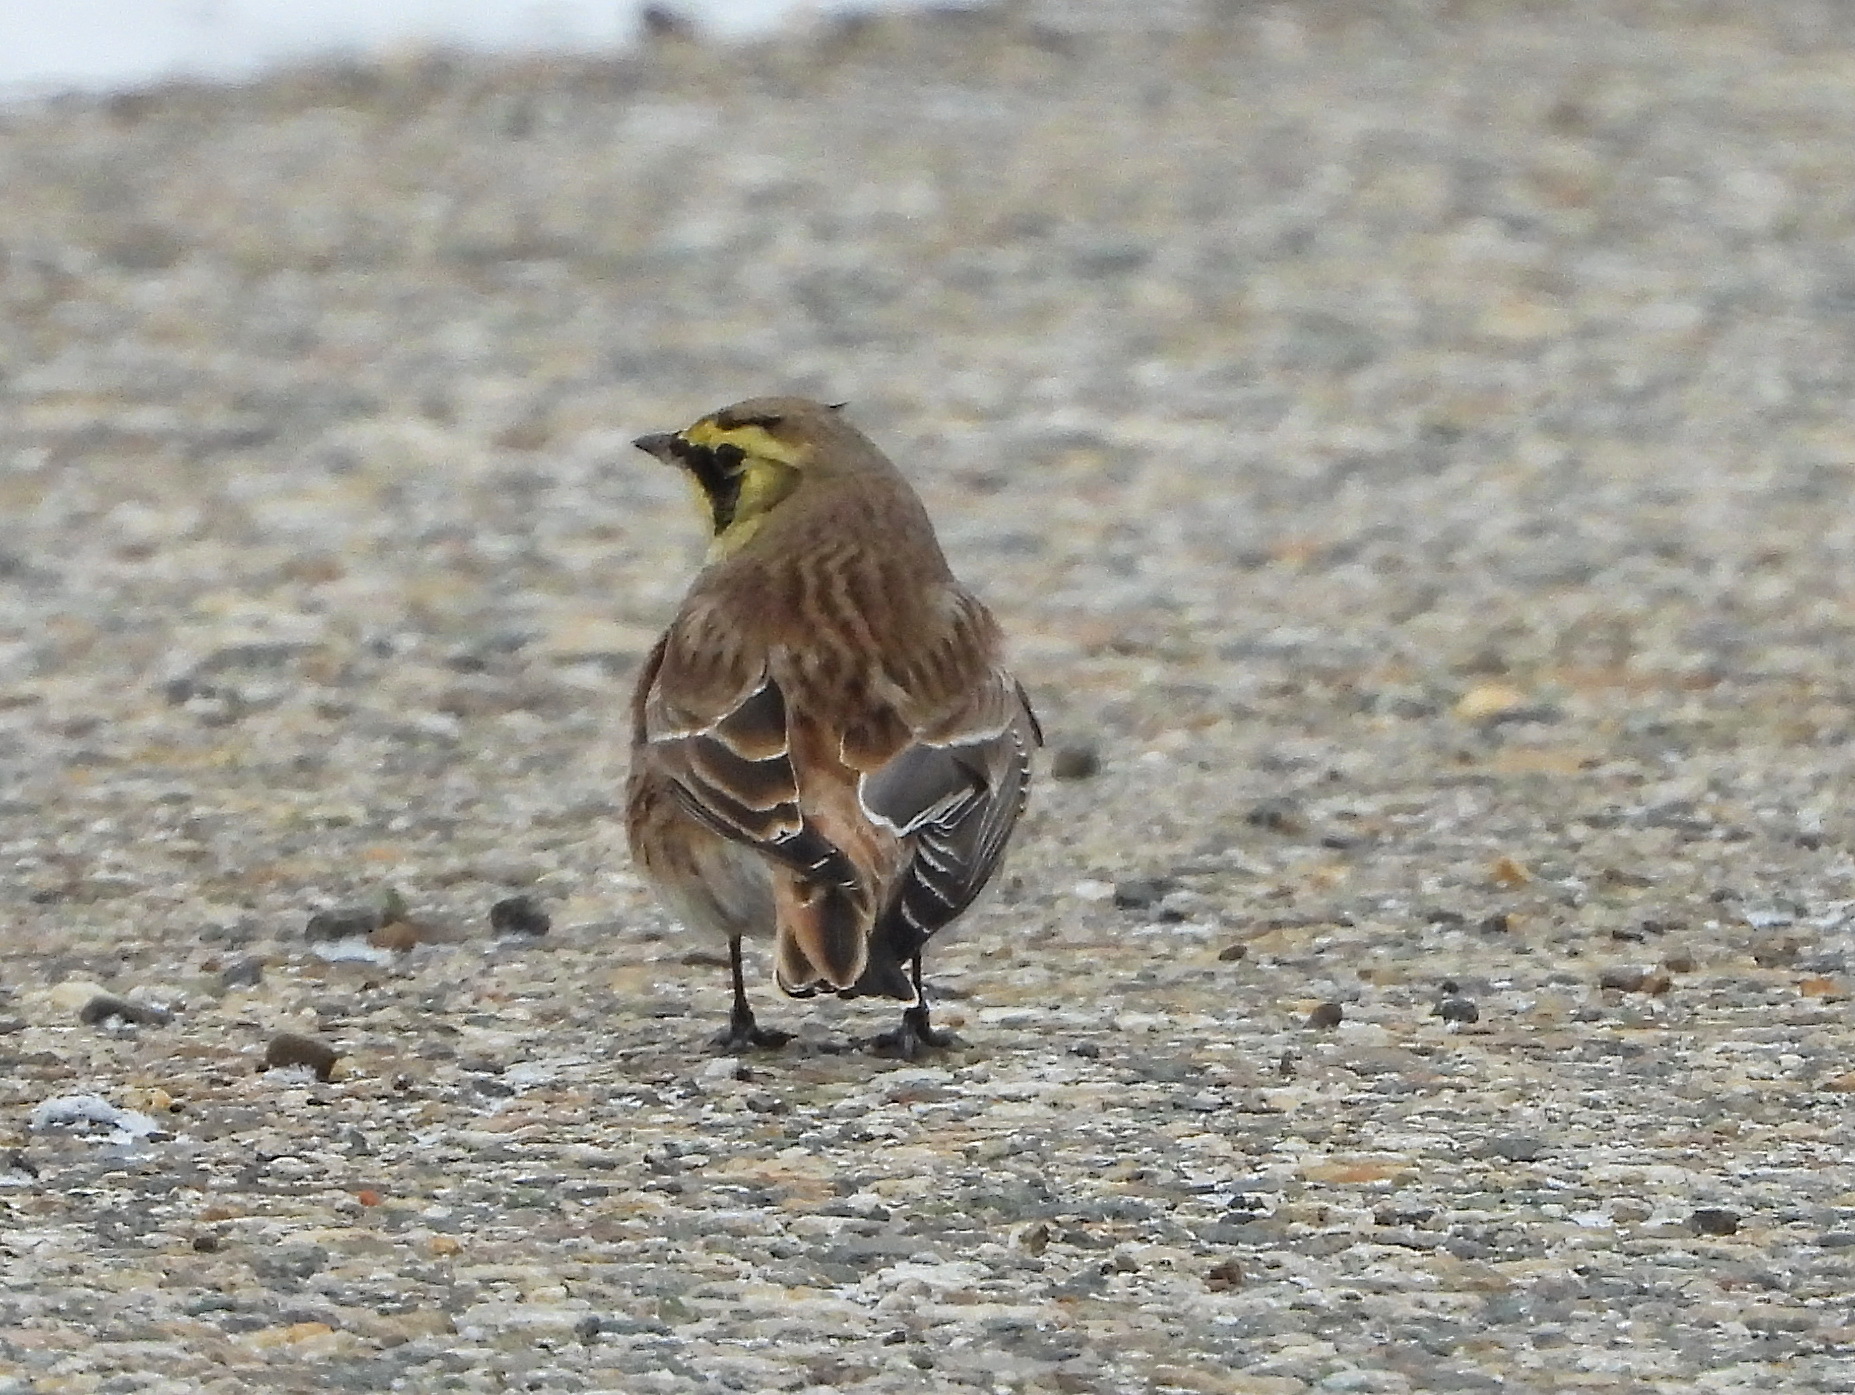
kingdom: Animalia
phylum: Chordata
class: Aves
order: Passeriformes
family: Alaudidae
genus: Eremophila
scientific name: Eremophila alpestris
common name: Horned lark
